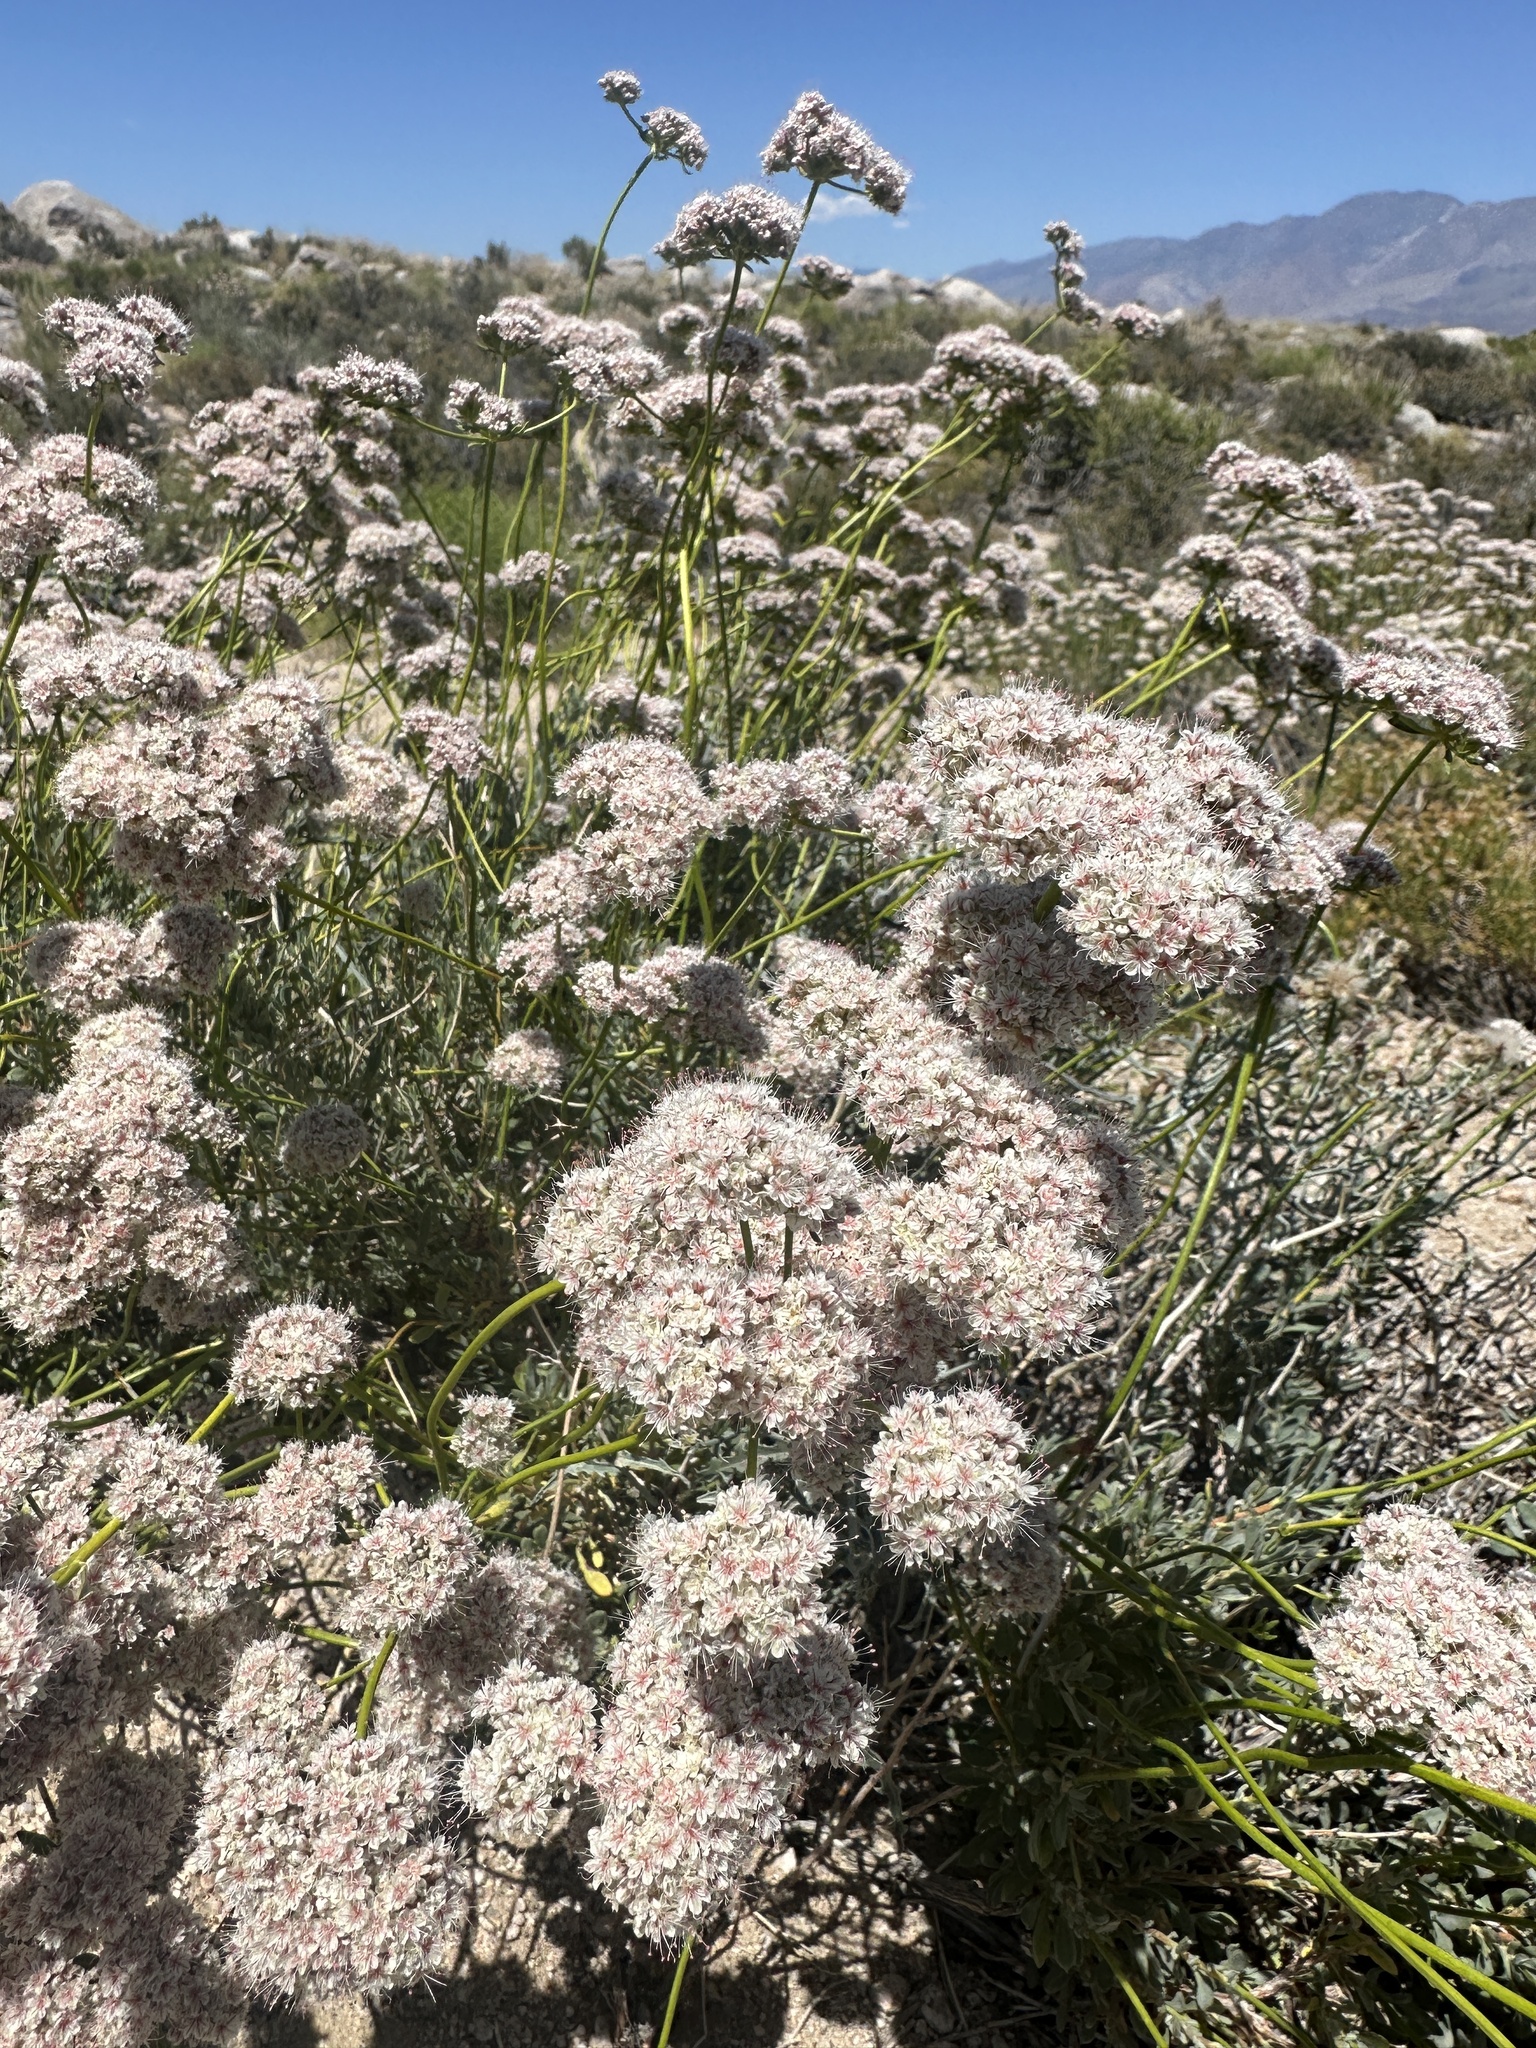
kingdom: Plantae
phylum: Tracheophyta
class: Magnoliopsida
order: Caryophyllales
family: Polygonaceae
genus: Eriogonum
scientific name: Eriogonum fasciculatum
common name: California wild buckwheat
